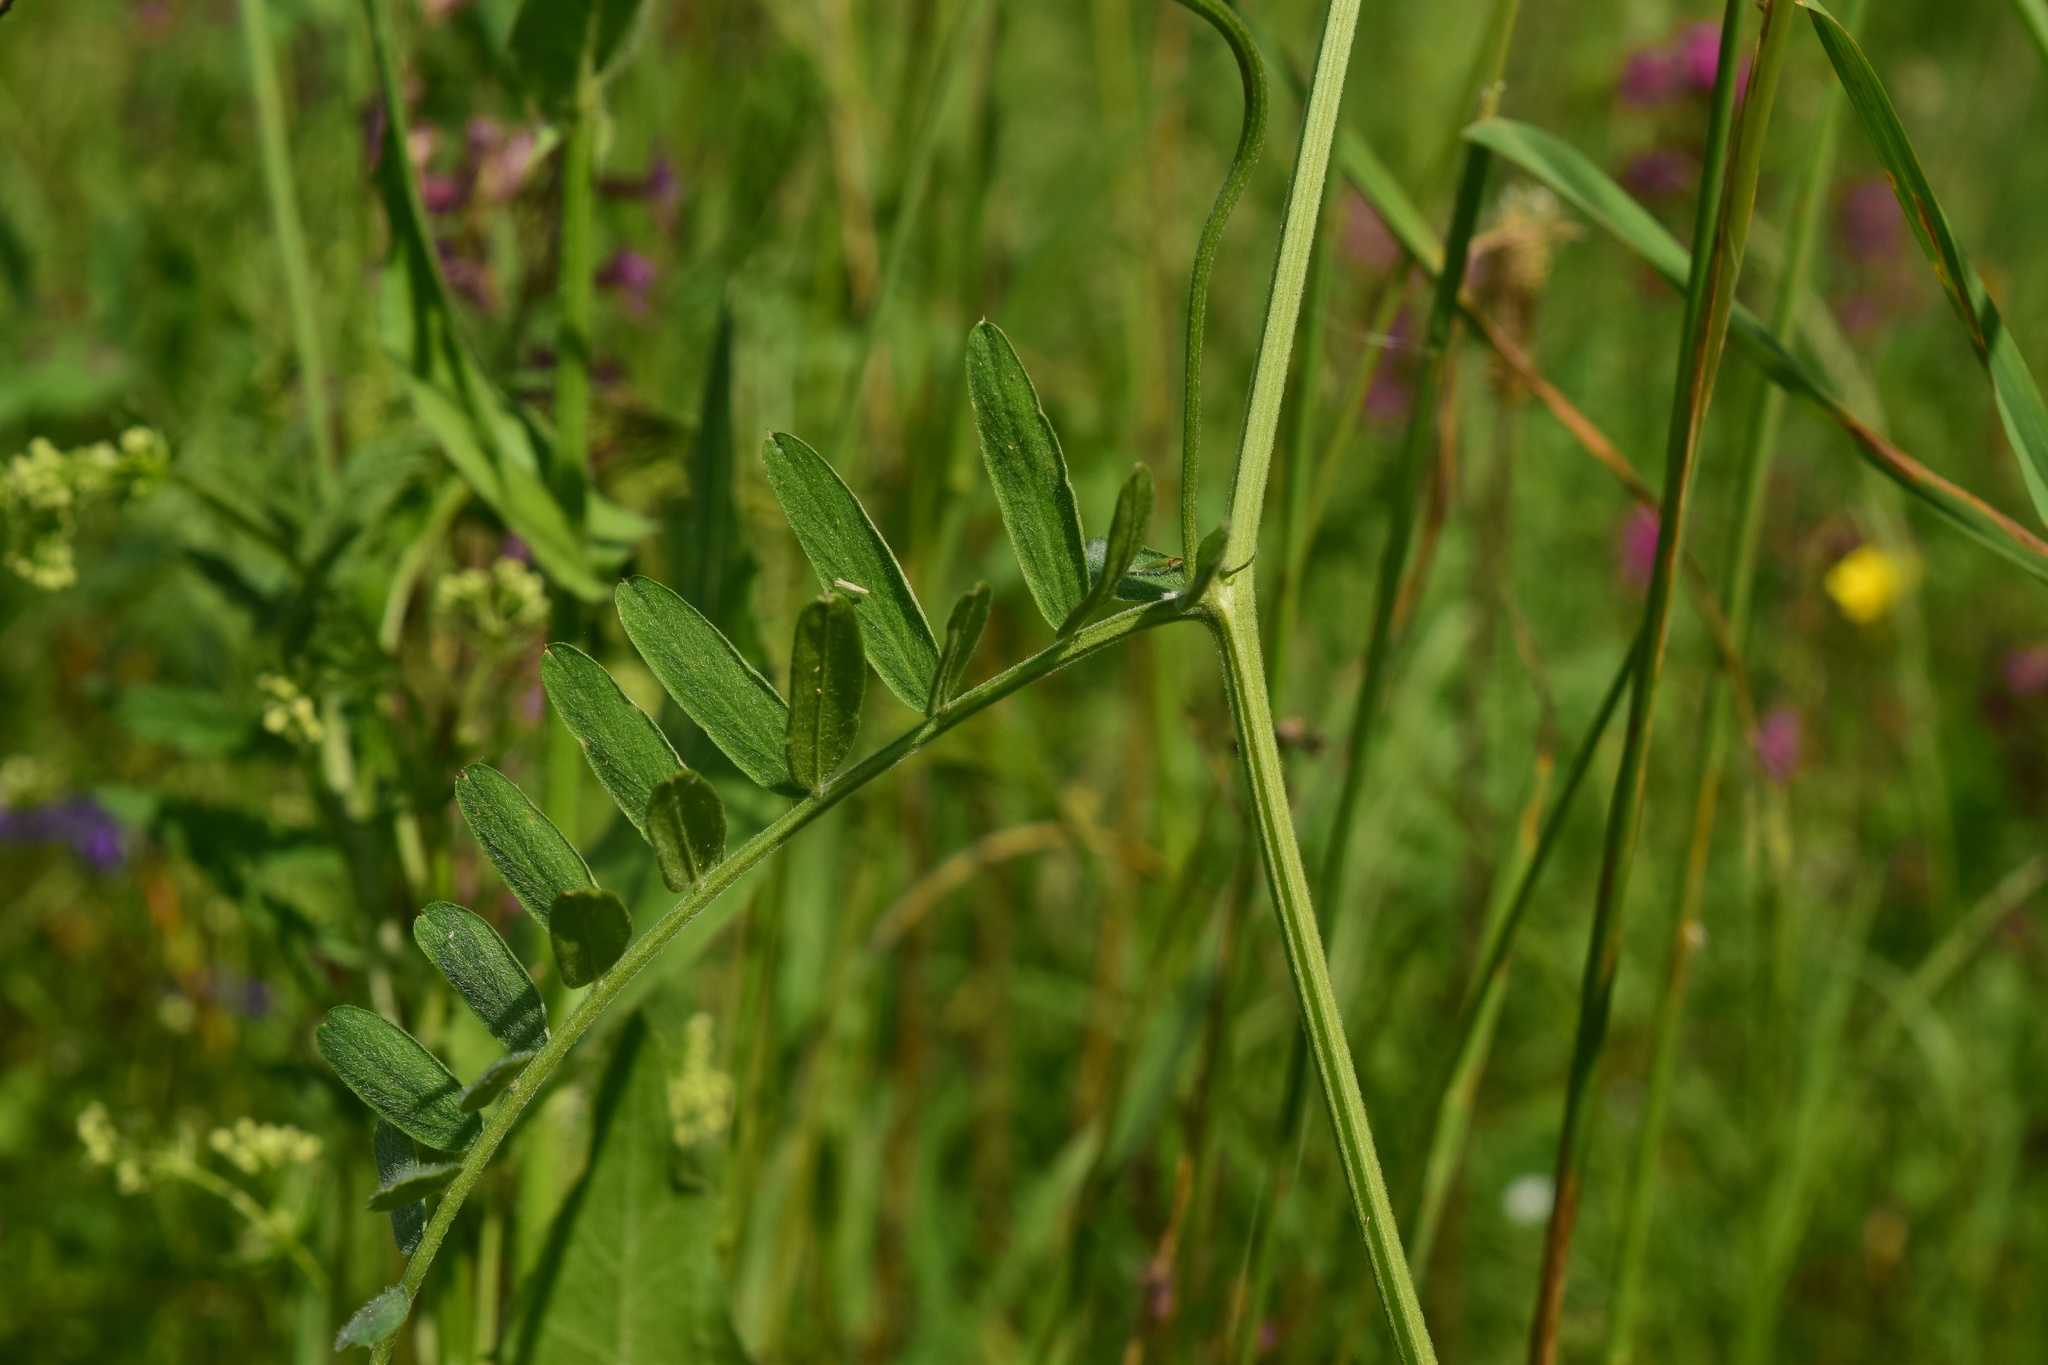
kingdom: Plantae
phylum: Tracheophyta
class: Magnoliopsida
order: Fabales
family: Fabaceae
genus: Vicia
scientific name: Vicia cracca
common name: Bird vetch
